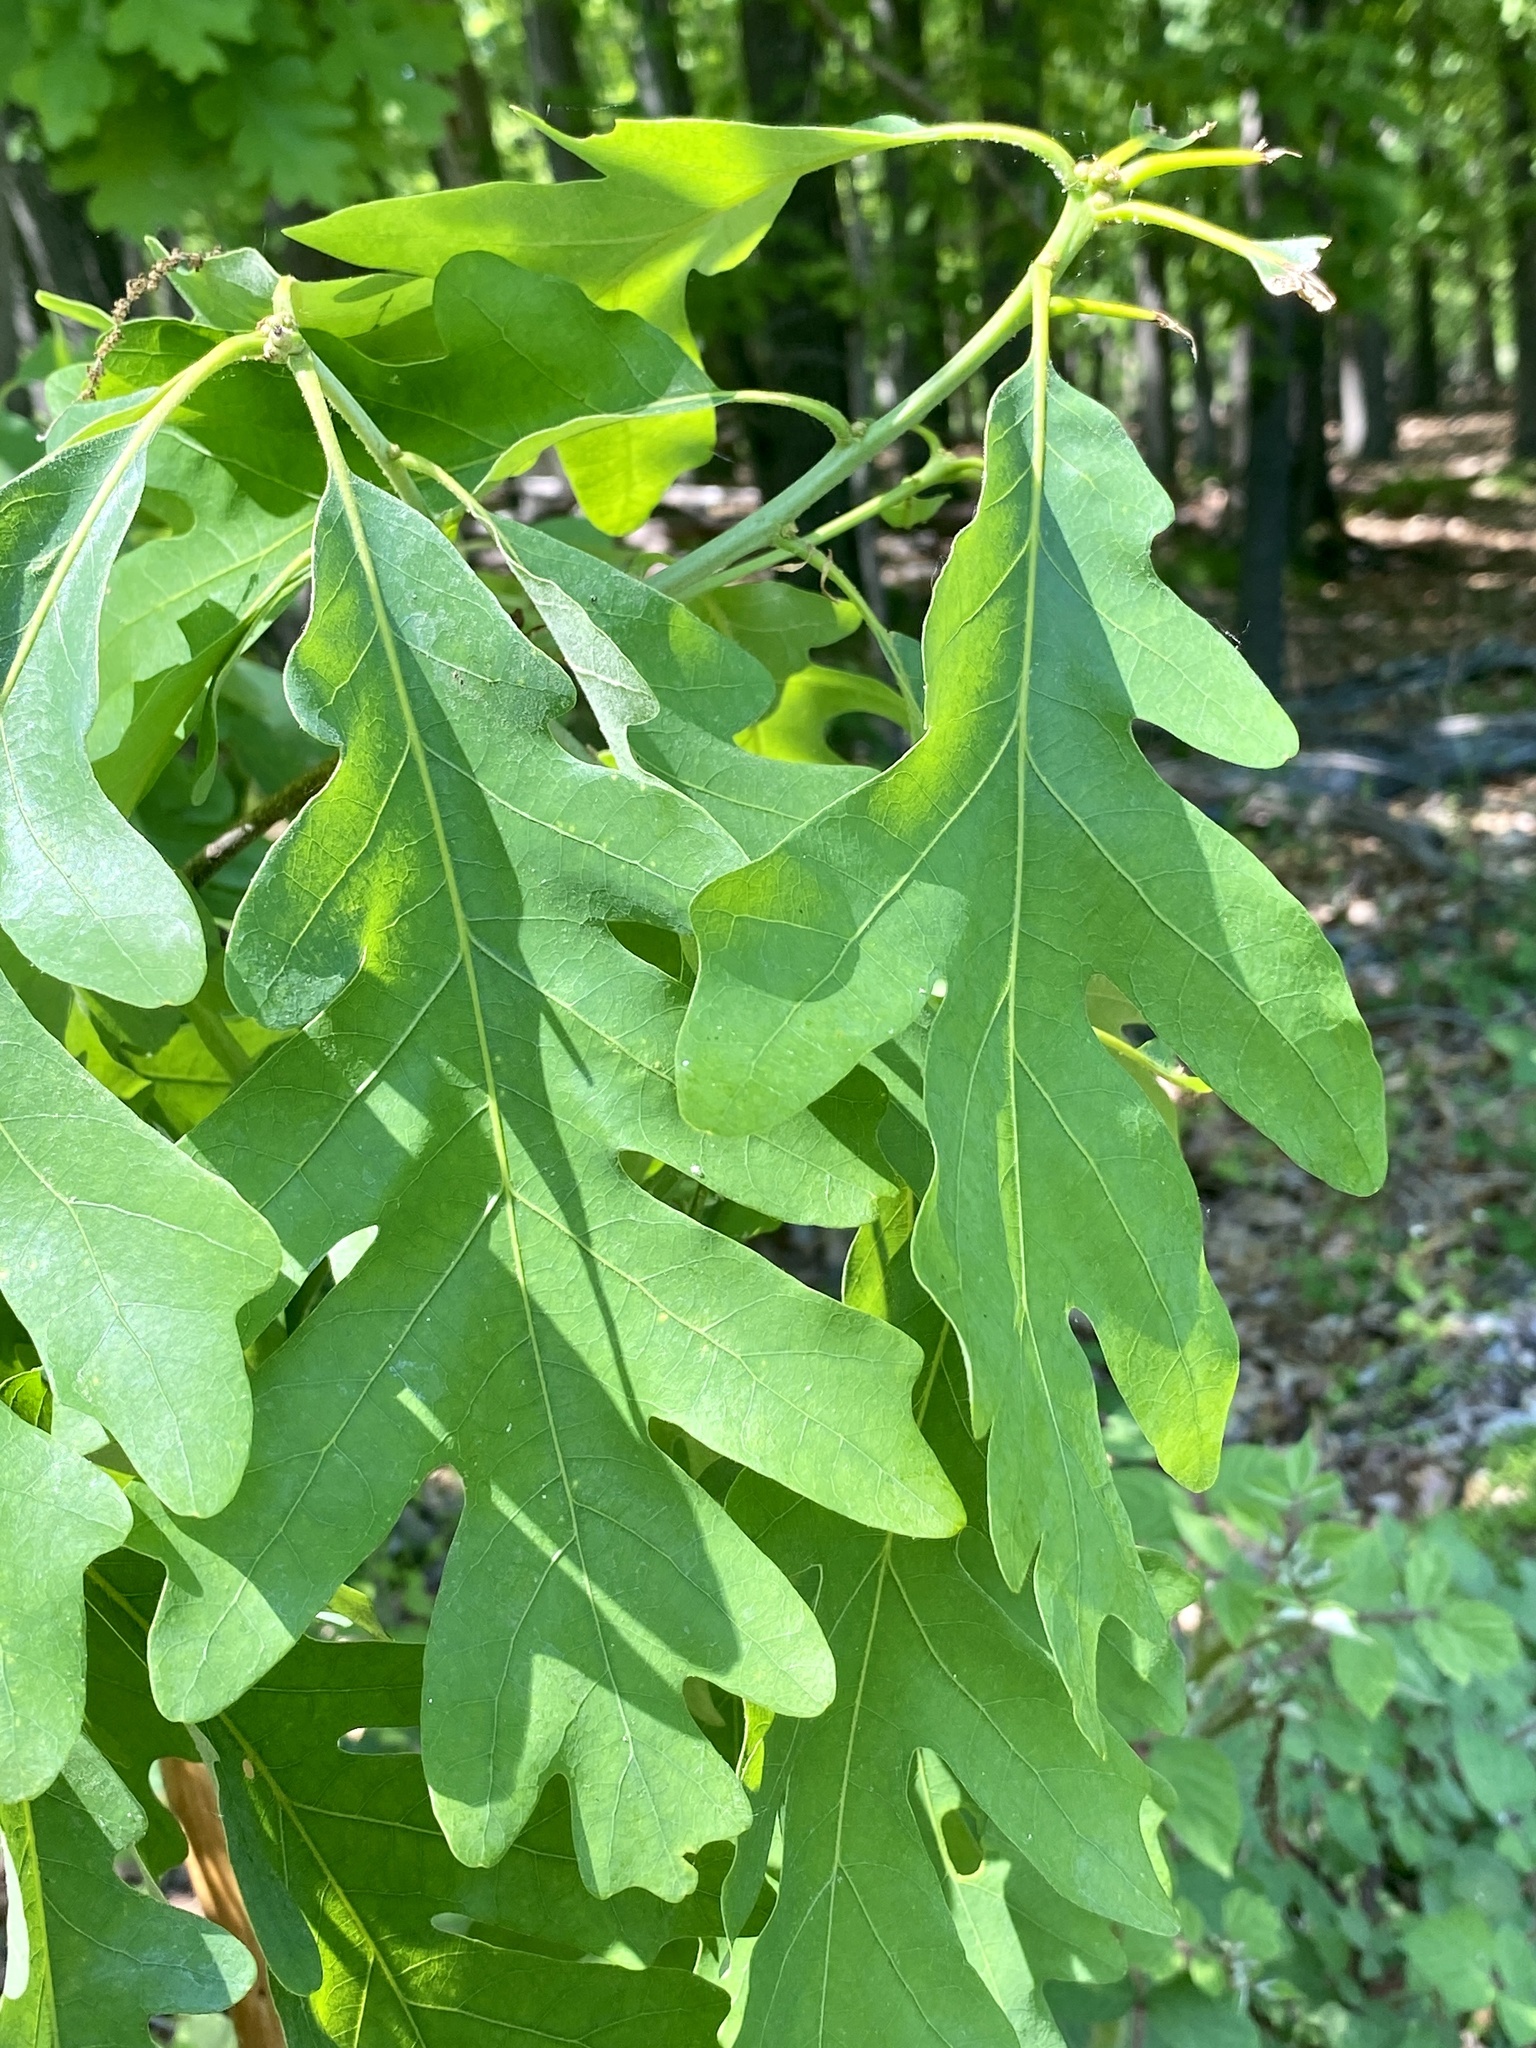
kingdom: Plantae
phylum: Tracheophyta
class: Magnoliopsida
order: Fagales
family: Fagaceae
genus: Quercus
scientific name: Quercus alba
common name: White oak
